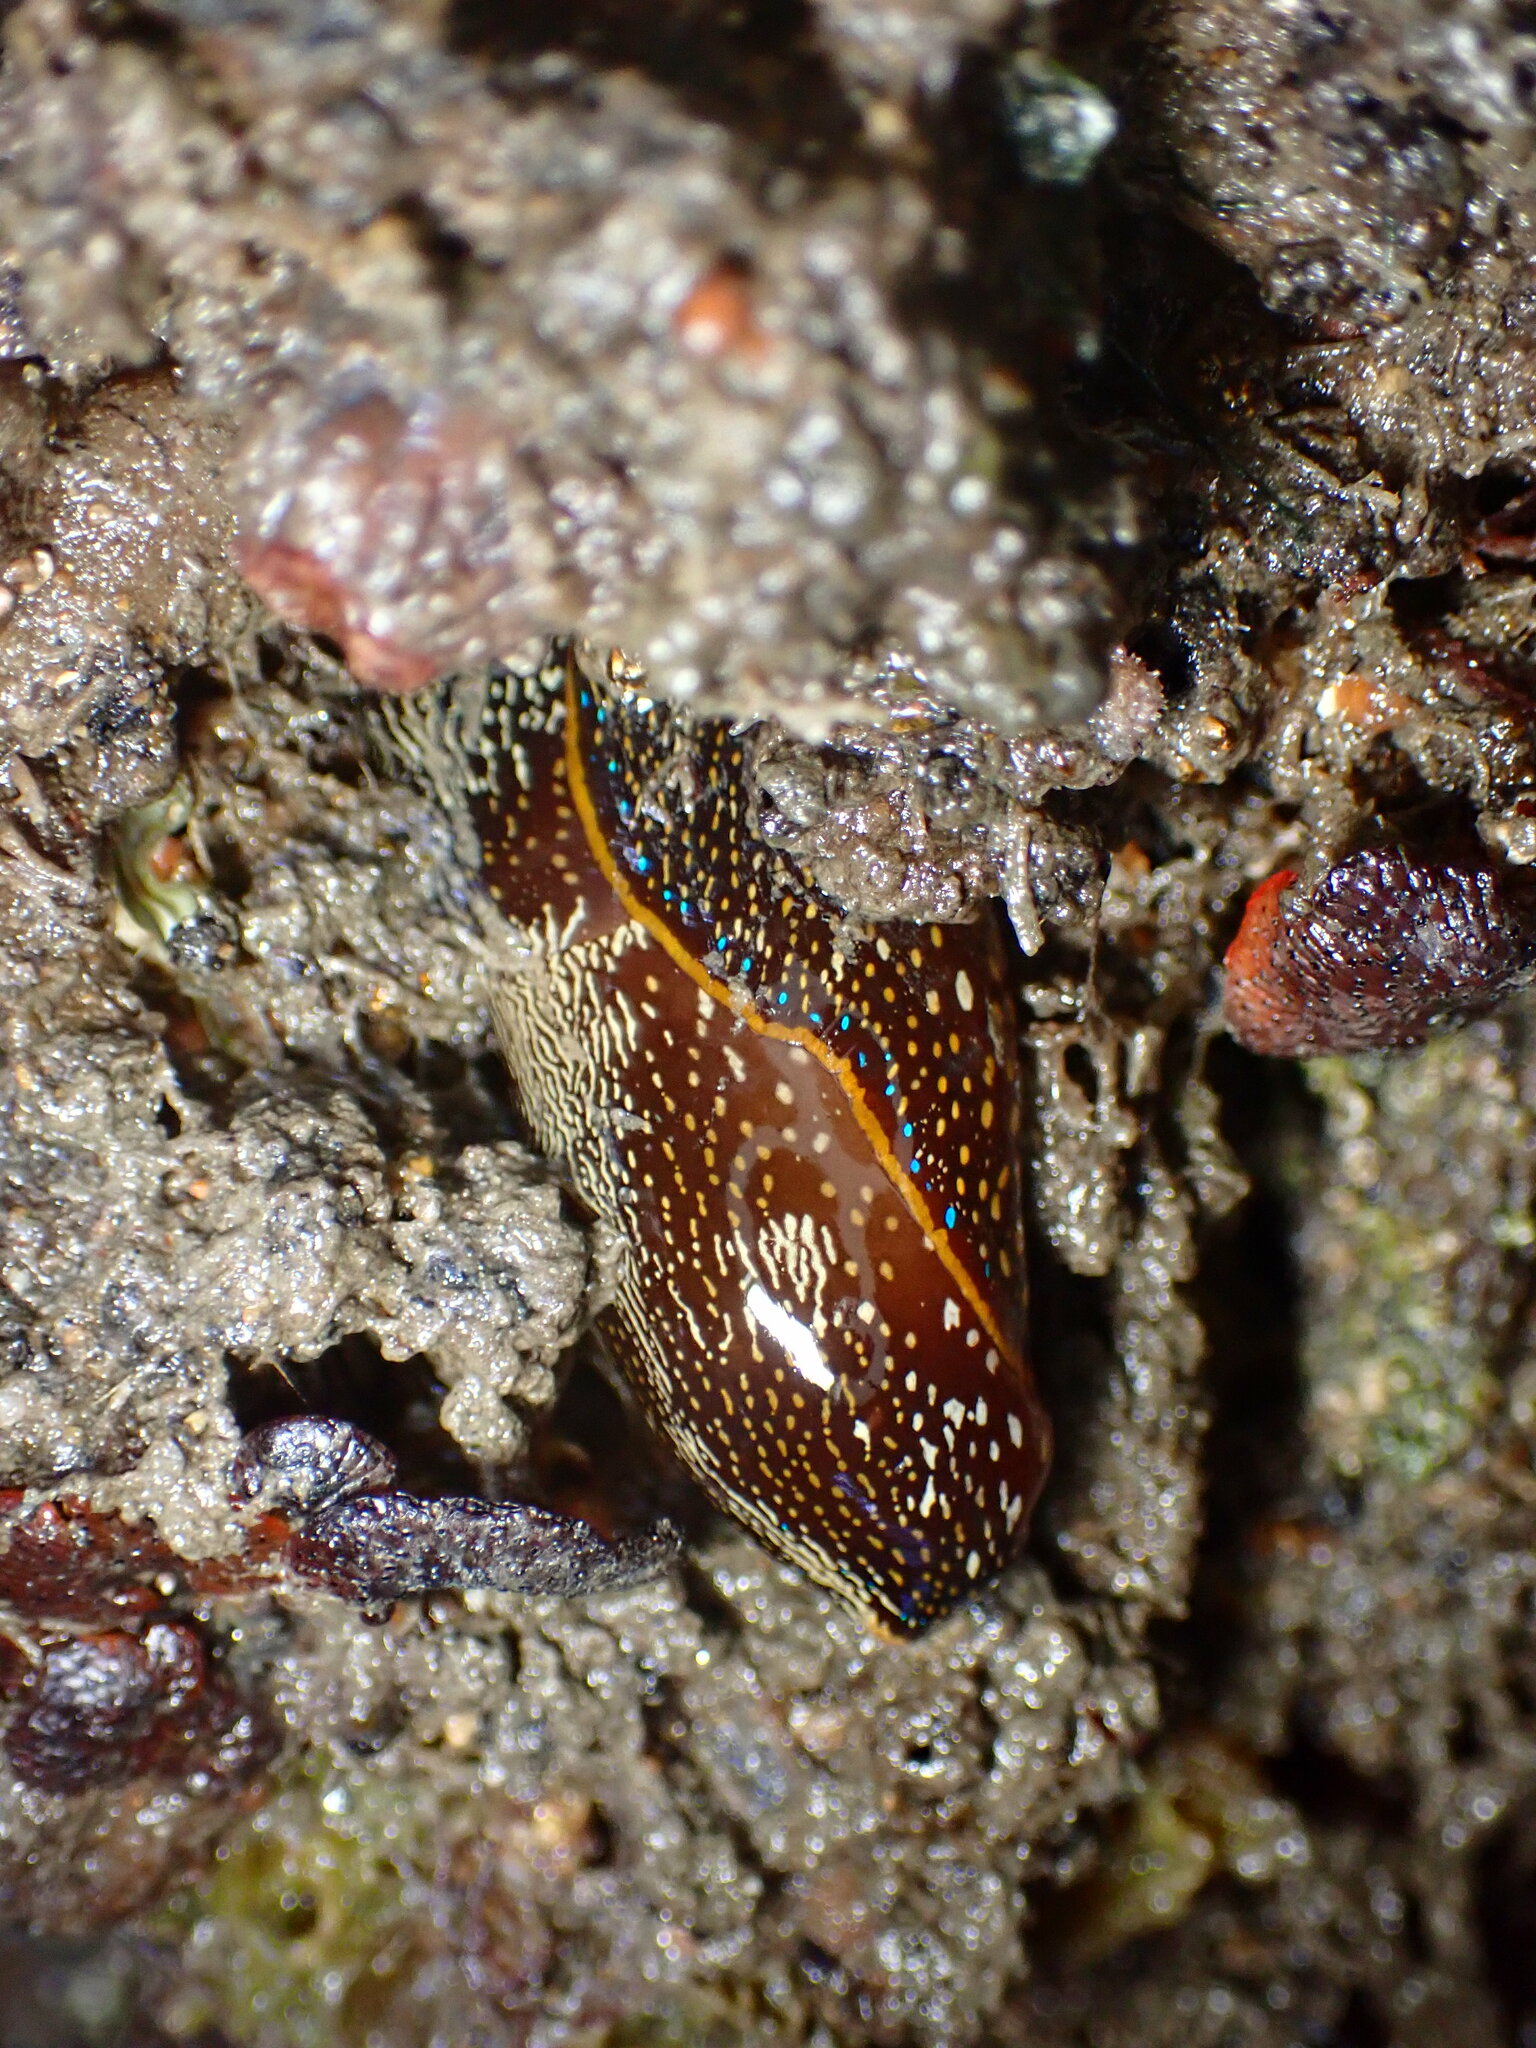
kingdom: Animalia
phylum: Mollusca
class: Gastropoda
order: Cephalaspidea
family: Aglajidae
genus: Navanax
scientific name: Navanax inermis
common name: California aglaja
